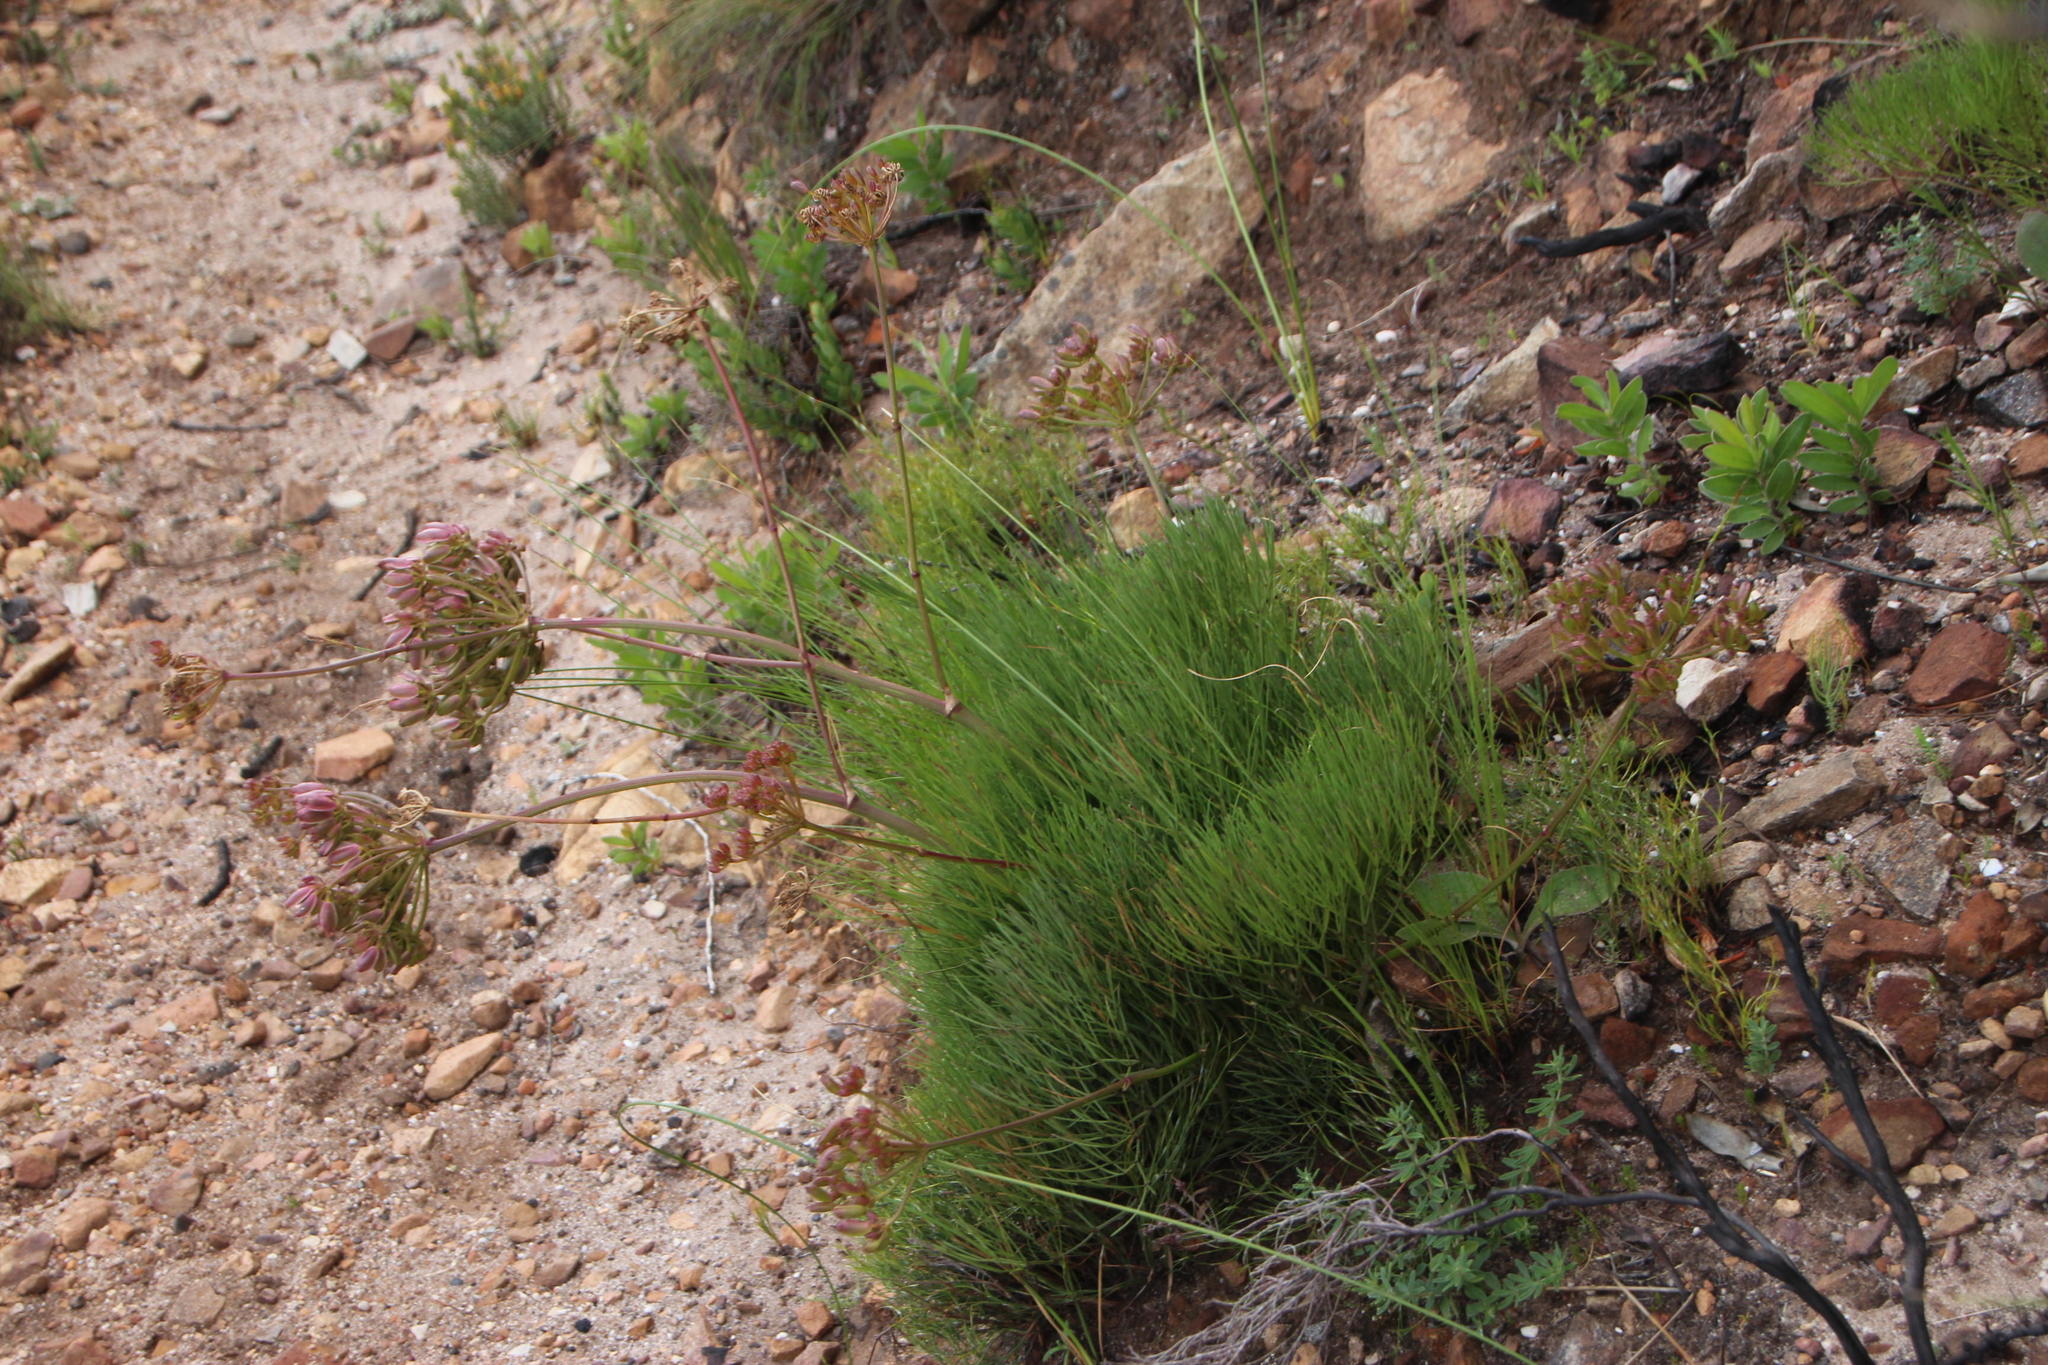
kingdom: Plantae
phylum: Tracheophyta
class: Magnoliopsida
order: Apiales
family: Apiaceae
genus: Nanobubon
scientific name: Nanobubon strictum
